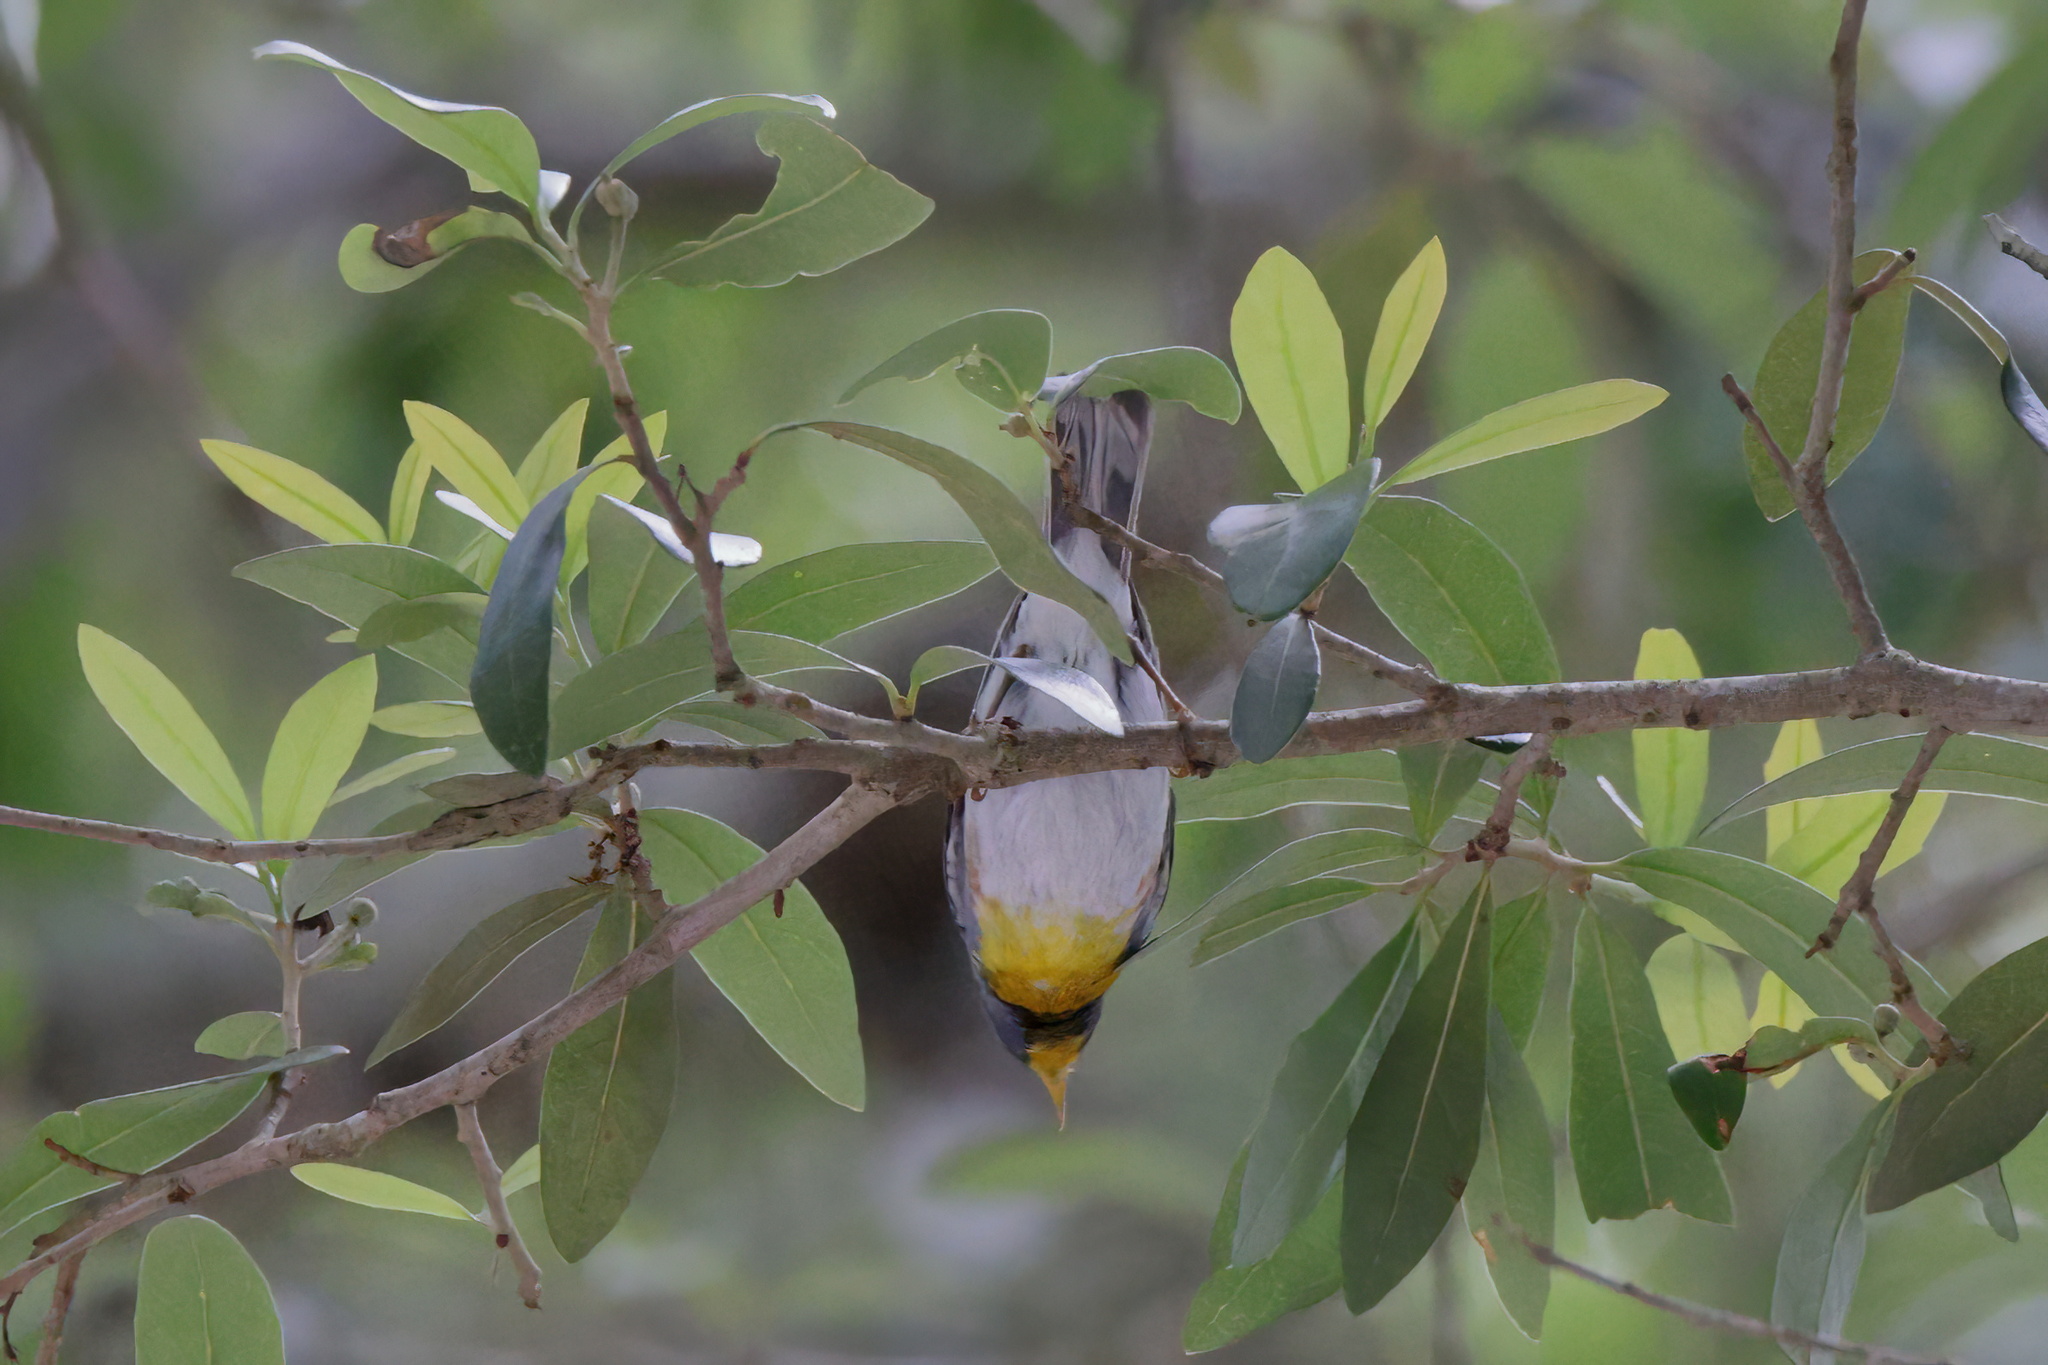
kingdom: Animalia
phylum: Chordata
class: Aves
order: Passeriformes
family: Parulidae
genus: Setophaga
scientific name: Setophaga americana
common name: Northern parula
